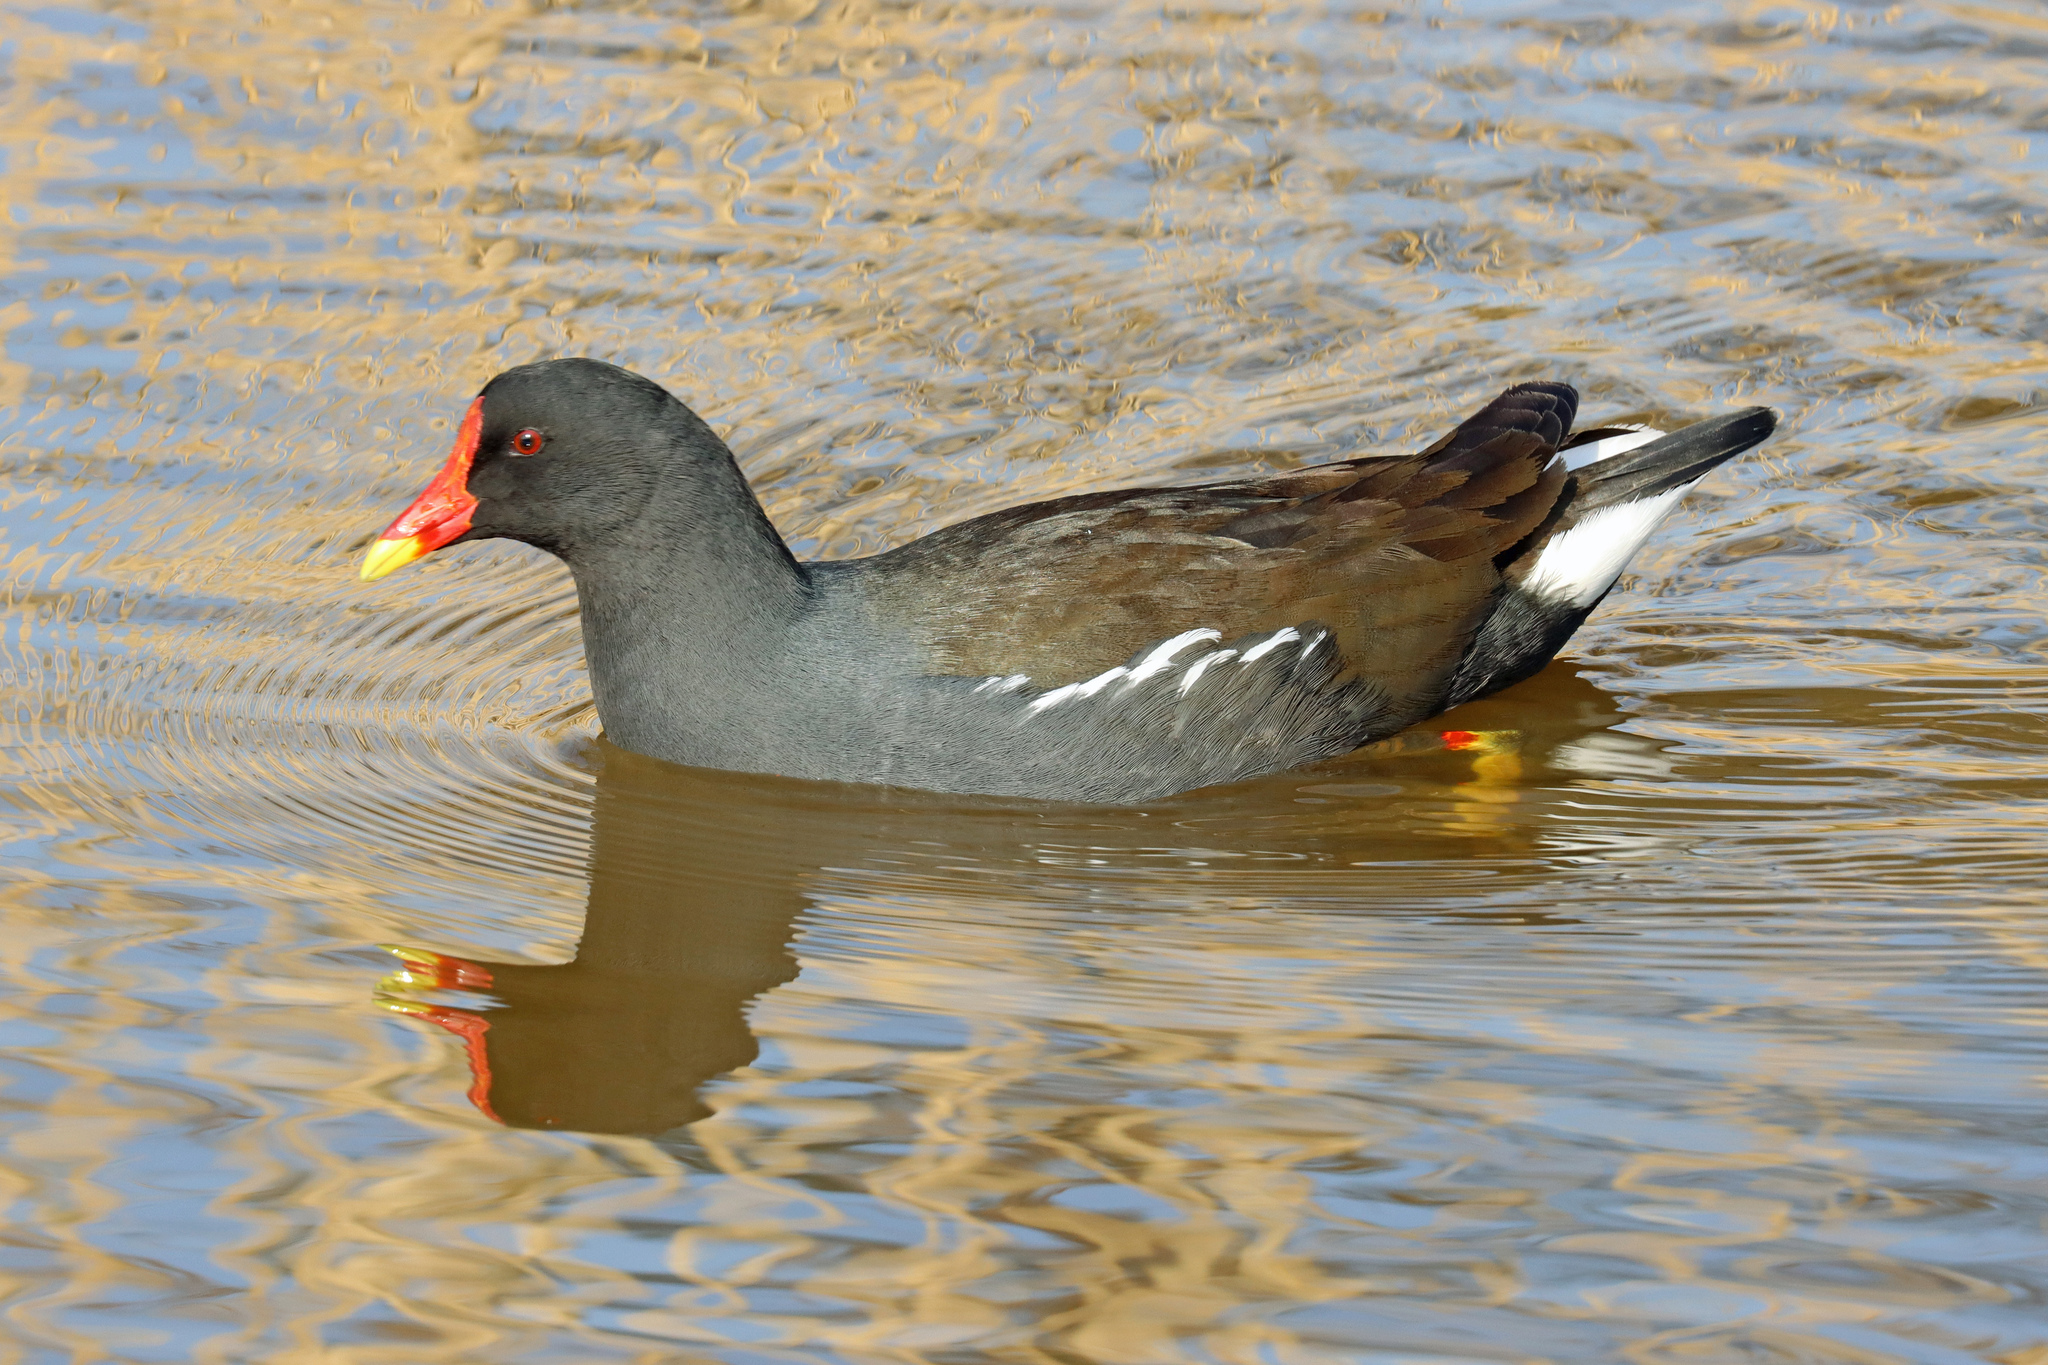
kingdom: Animalia
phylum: Chordata
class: Aves
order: Gruiformes
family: Rallidae
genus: Gallinula
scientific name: Gallinula chloropus
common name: Common moorhen
